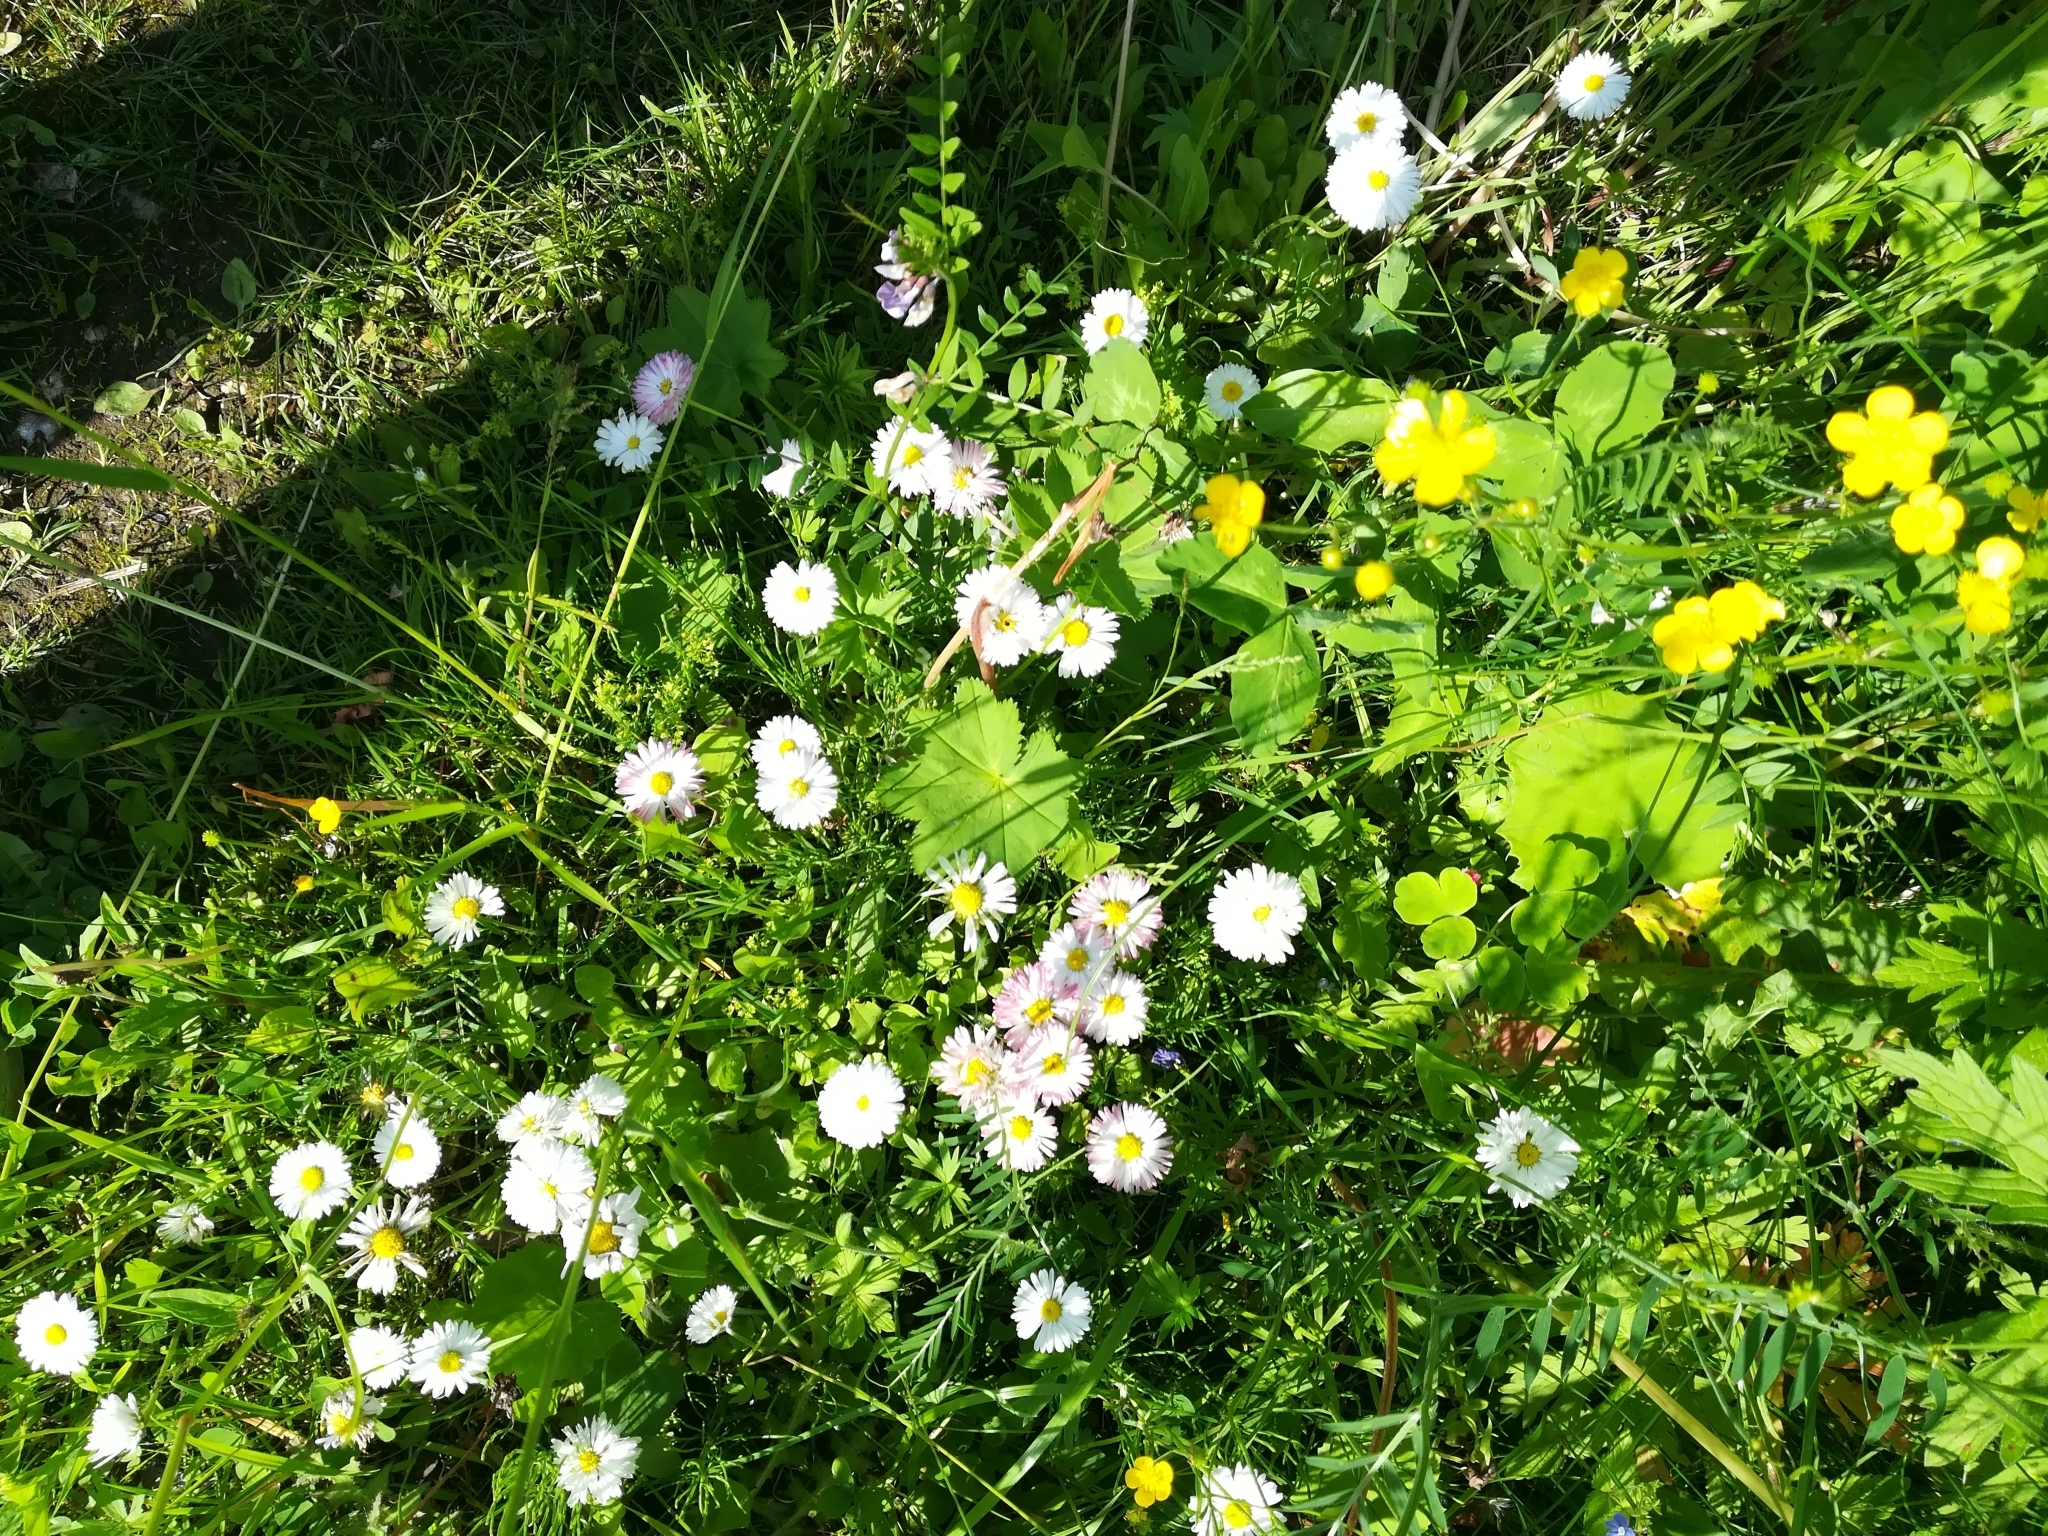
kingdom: Plantae
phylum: Tracheophyta
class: Magnoliopsida
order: Asterales
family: Asteraceae
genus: Bellis
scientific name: Bellis perennis
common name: Lawndaisy
